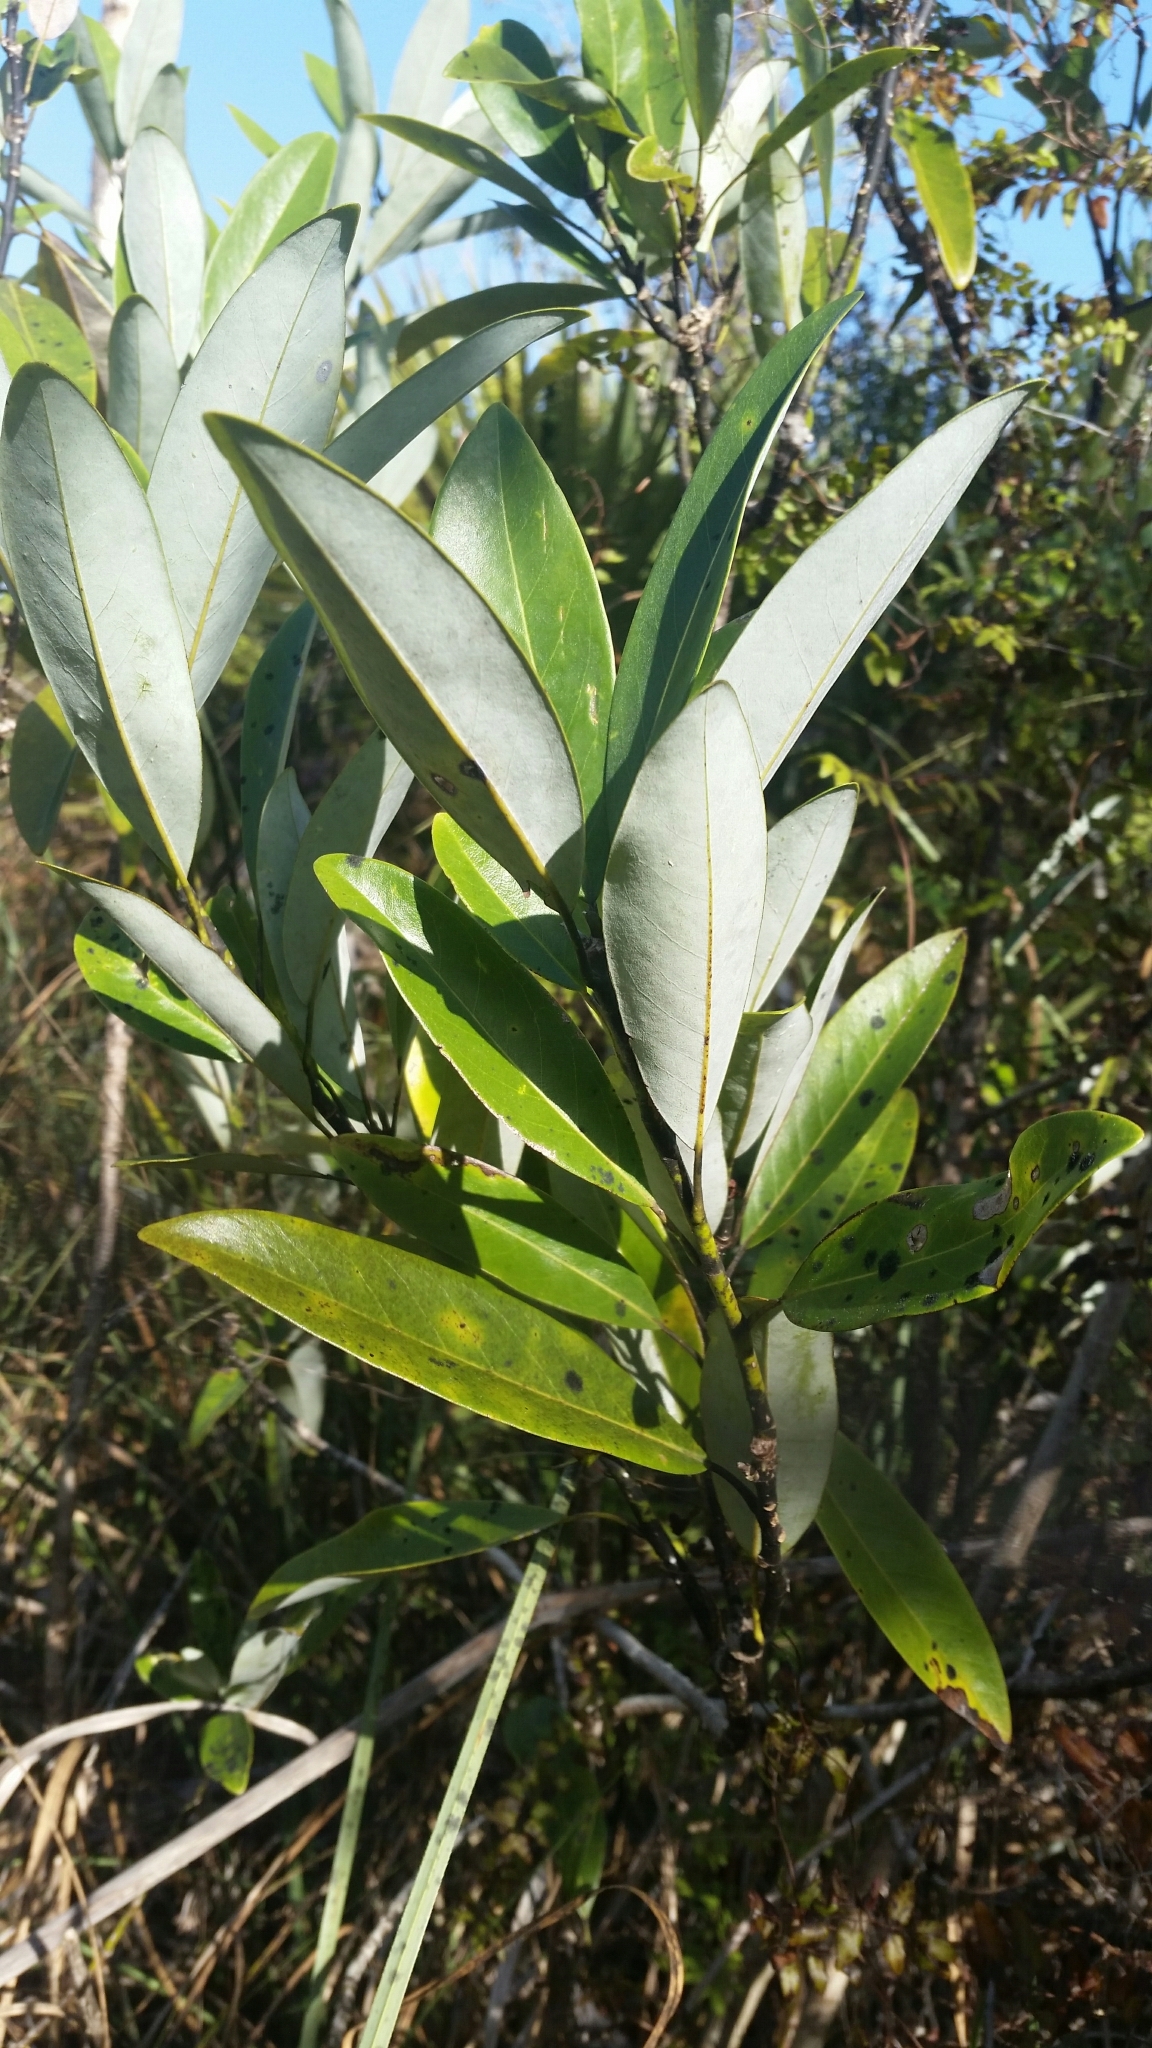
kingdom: Plantae
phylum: Tracheophyta
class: Magnoliopsida
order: Magnoliales
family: Magnoliaceae
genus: Magnolia
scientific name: Magnolia virginiana
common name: Swamp bay
